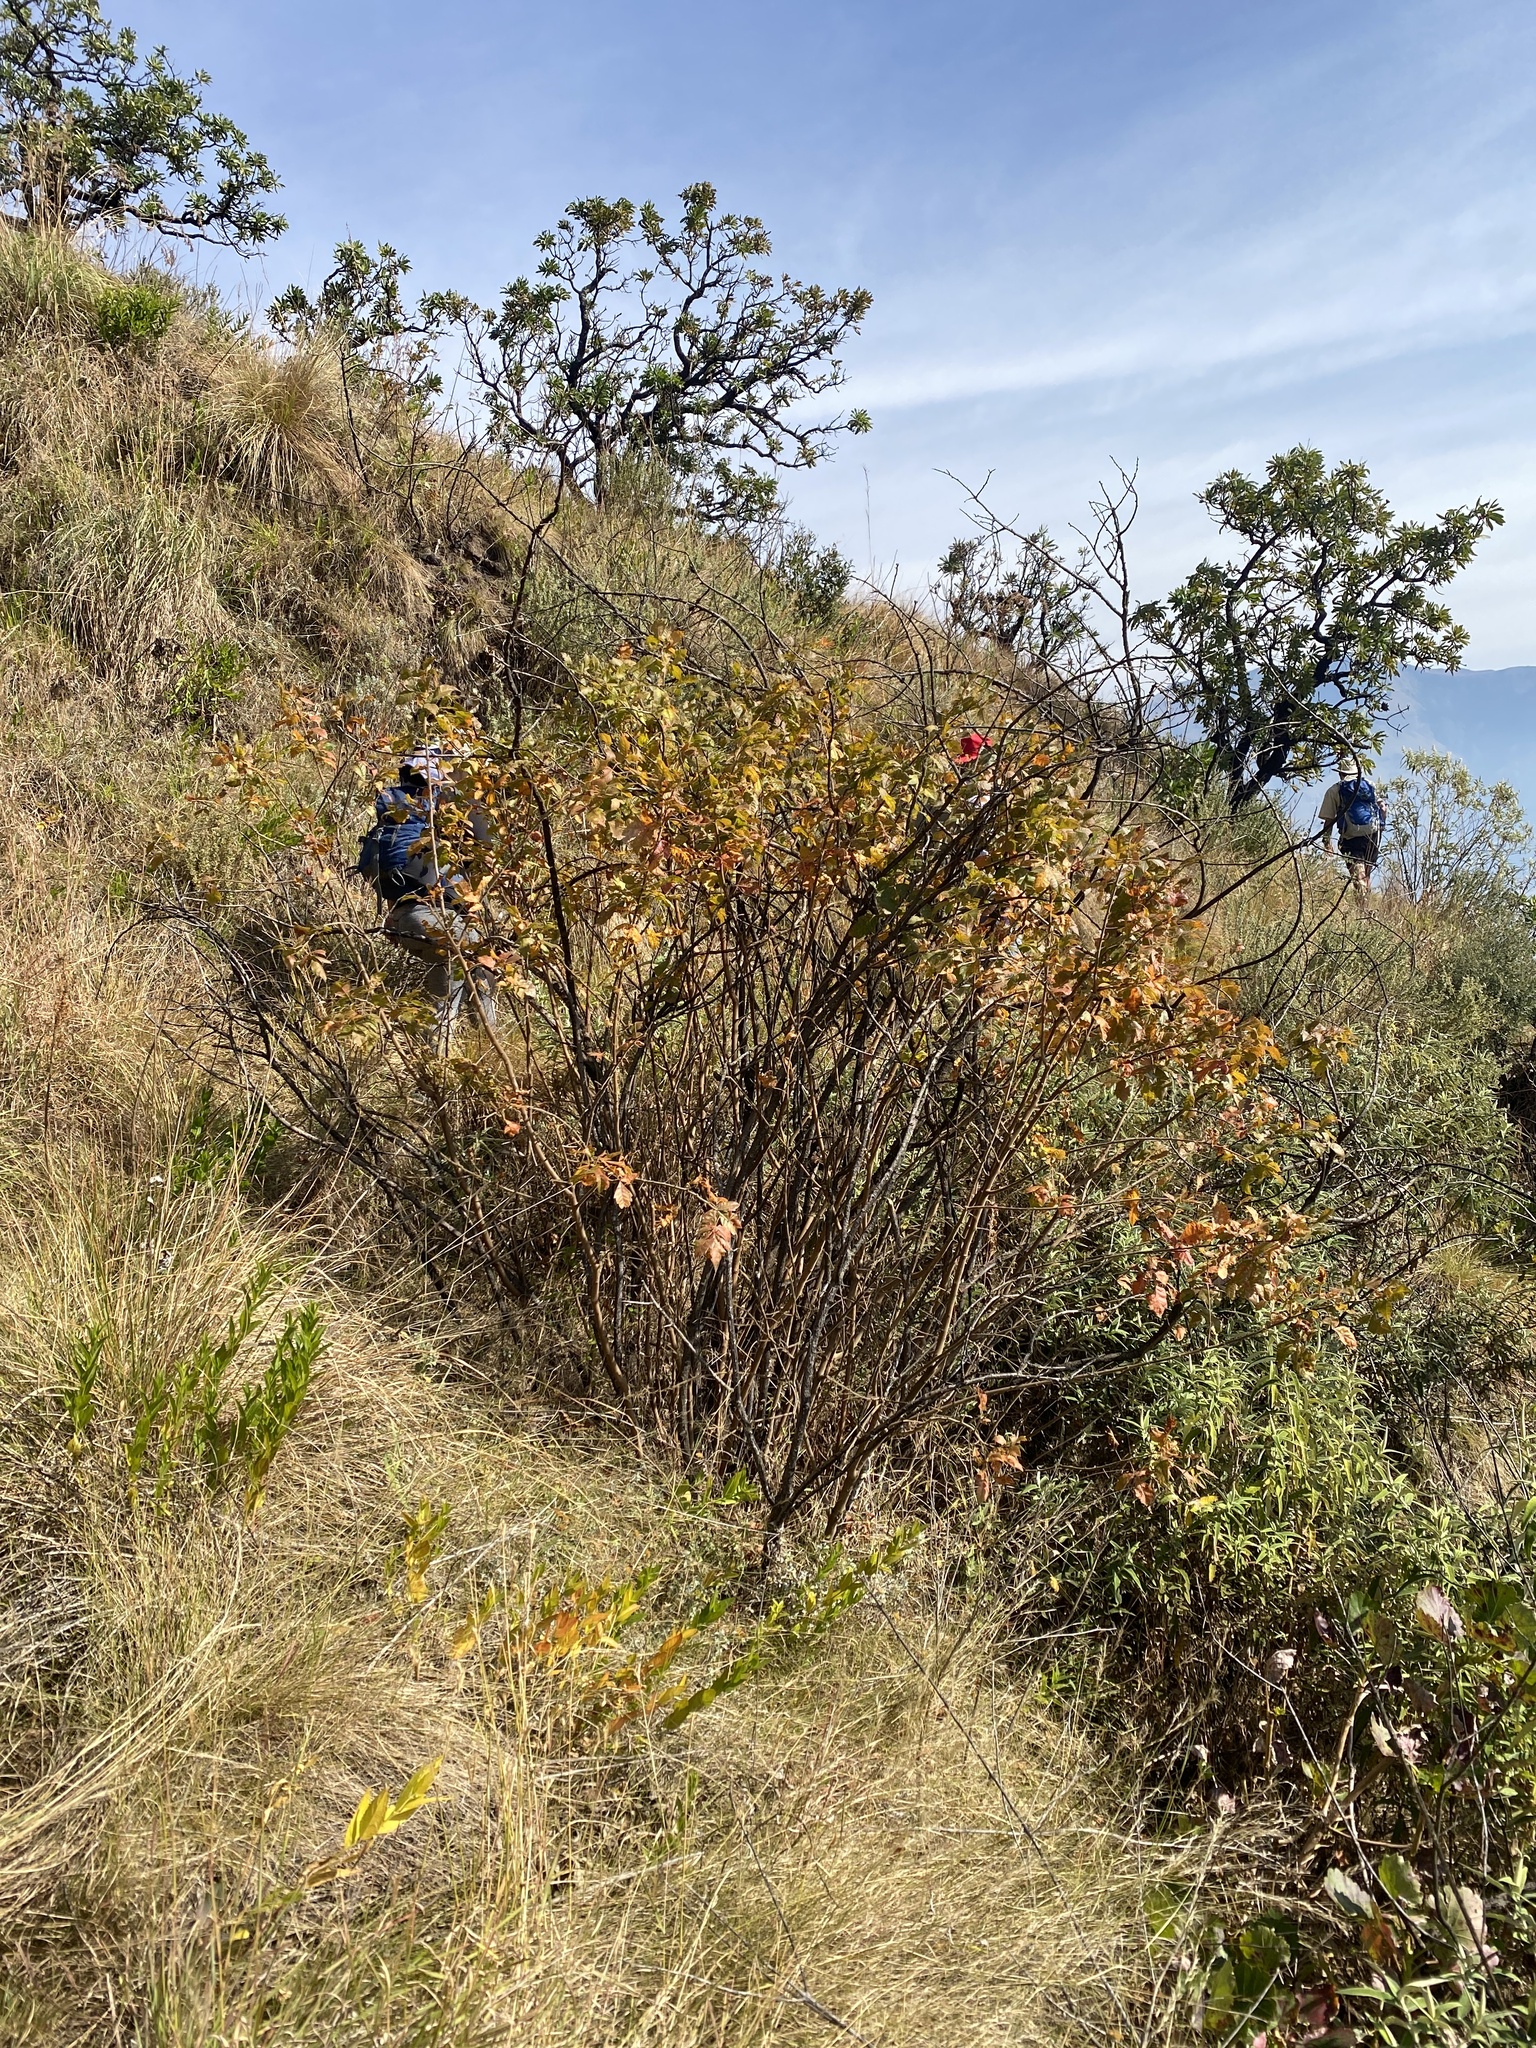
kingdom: Plantae
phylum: Tracheophyta
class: Magnoliopsida
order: Sapindales
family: Anacardiaceae
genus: Searsia
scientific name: Searsia dentata
